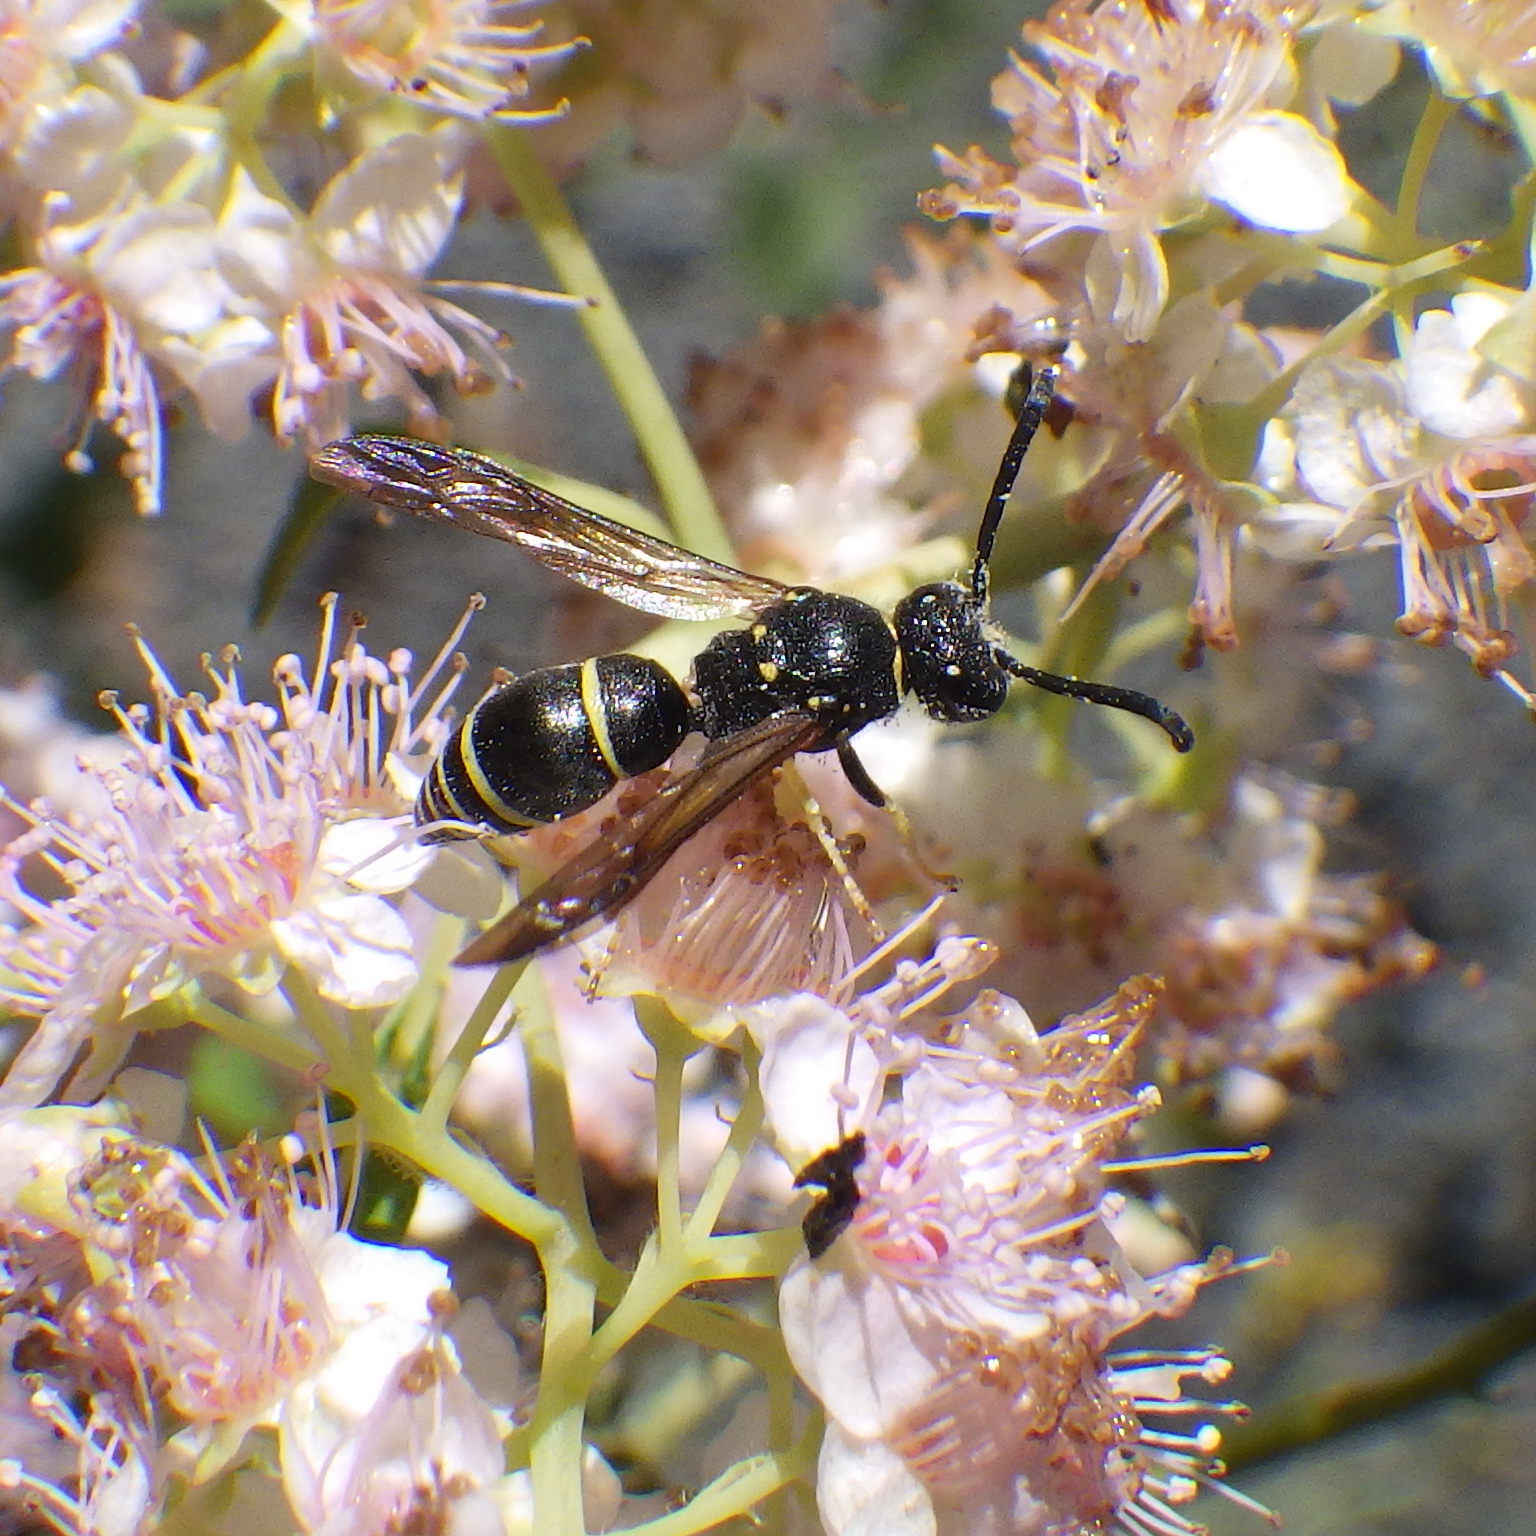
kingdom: Animalia
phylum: Arthropoda
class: Insecta
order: Hymenoptera
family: Vespidae
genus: Ancistrocerus
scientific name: Ancistrocerus
